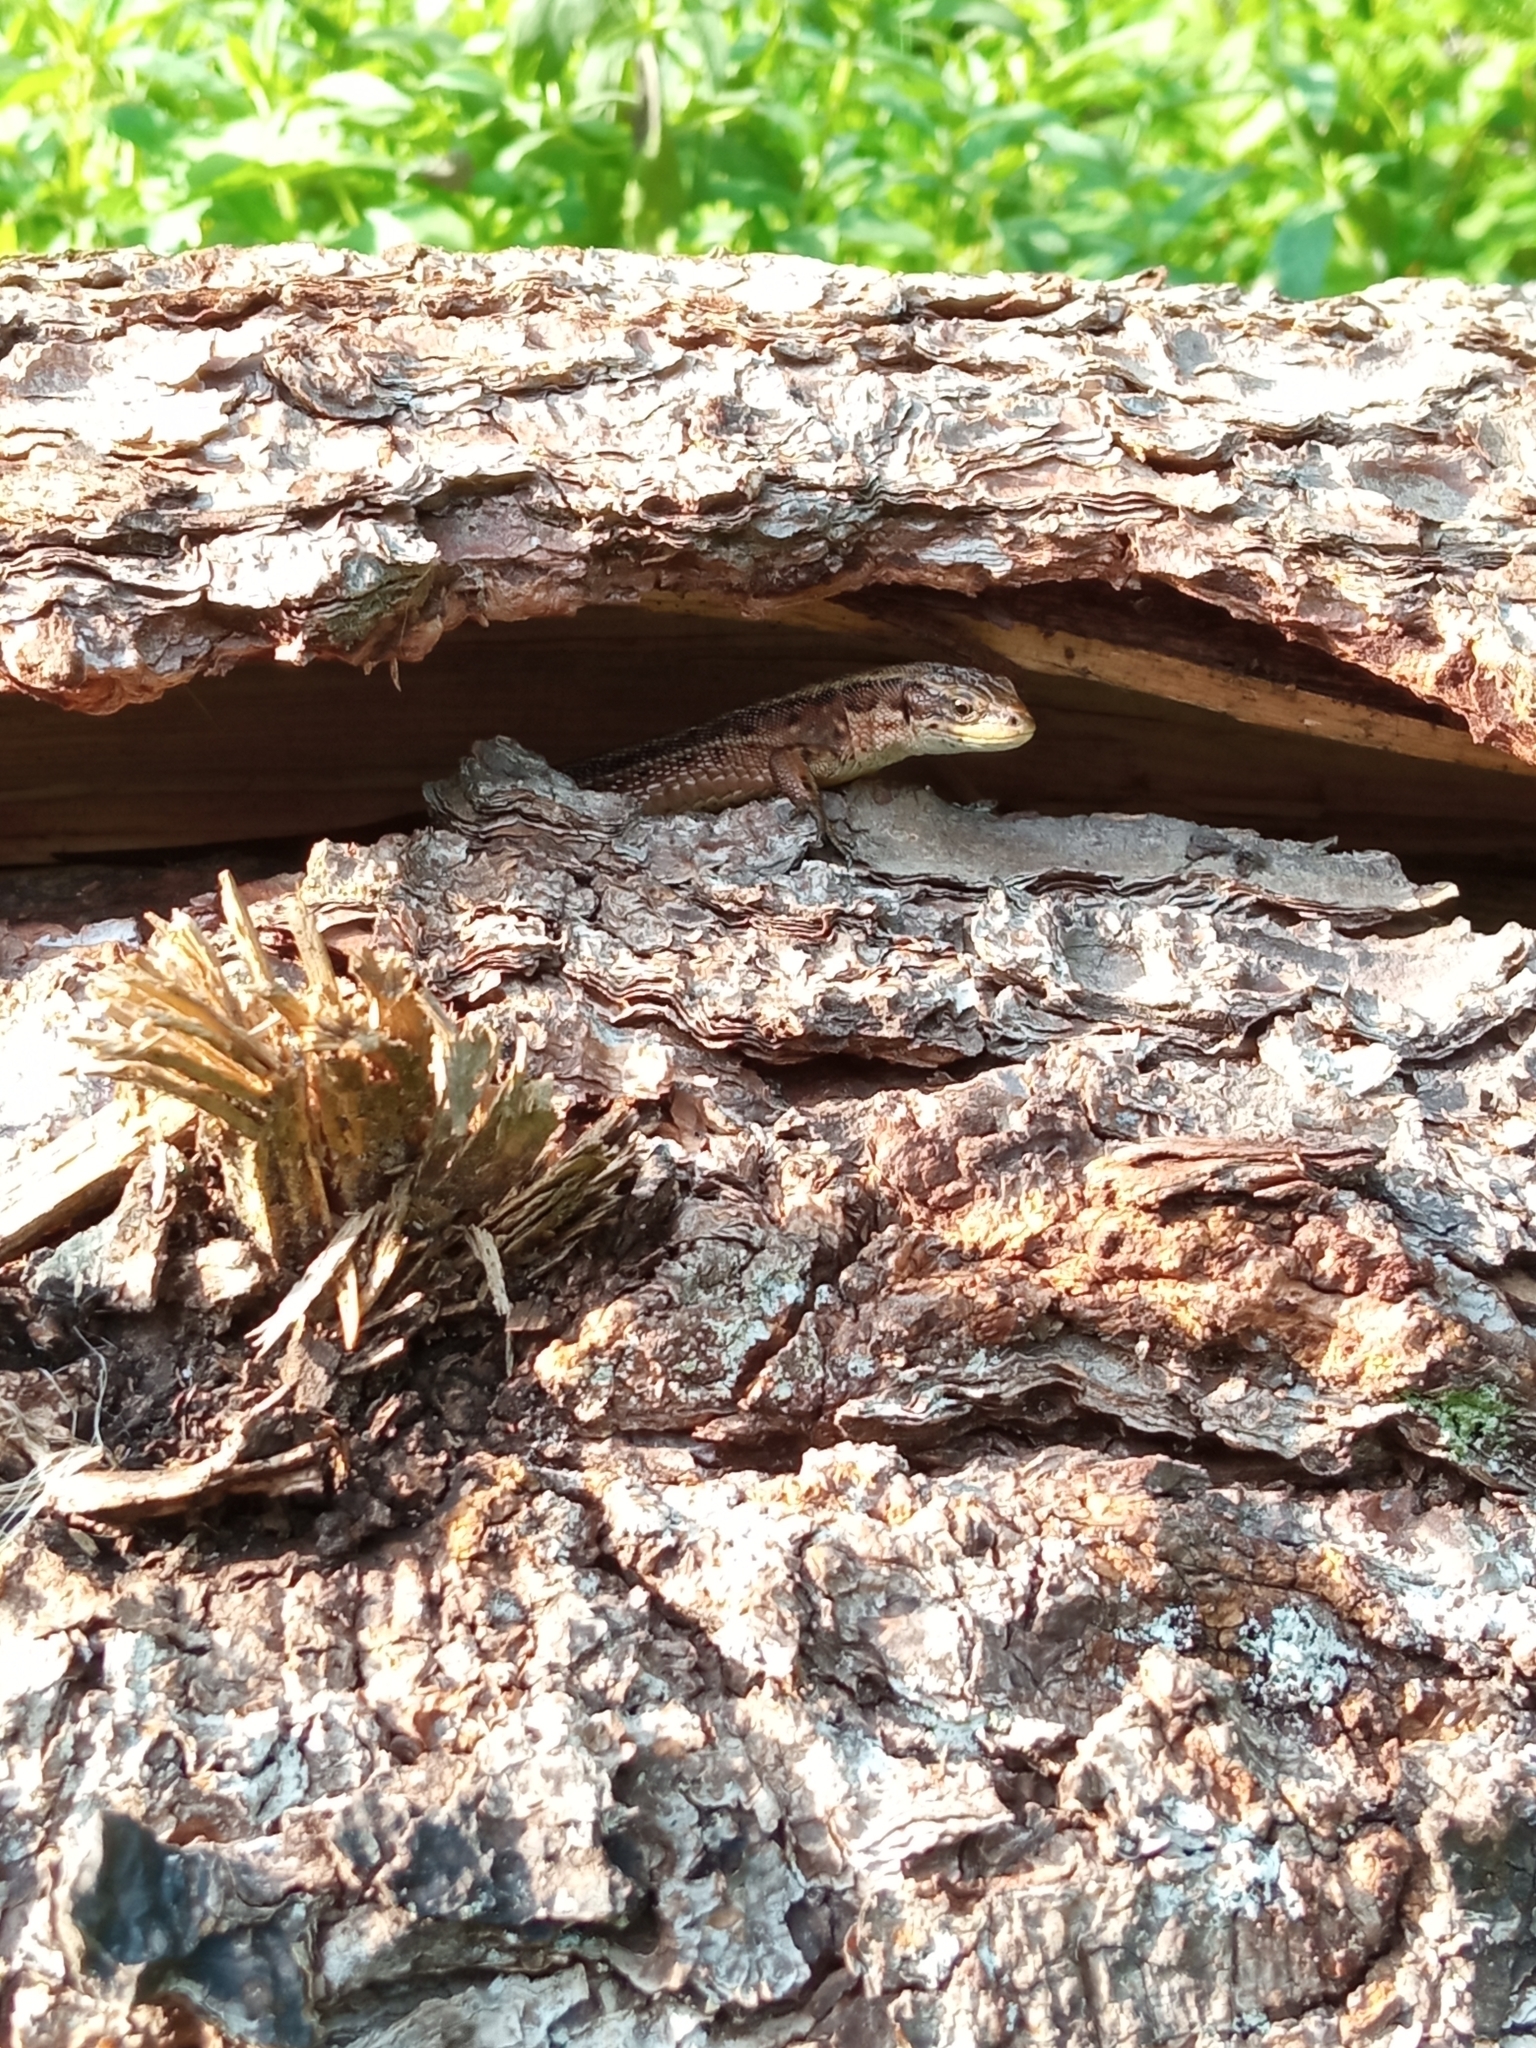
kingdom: Animalia
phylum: Chordata
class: Squamata
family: Lacertidae
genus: Zootoca
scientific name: Zootoca vivipara
